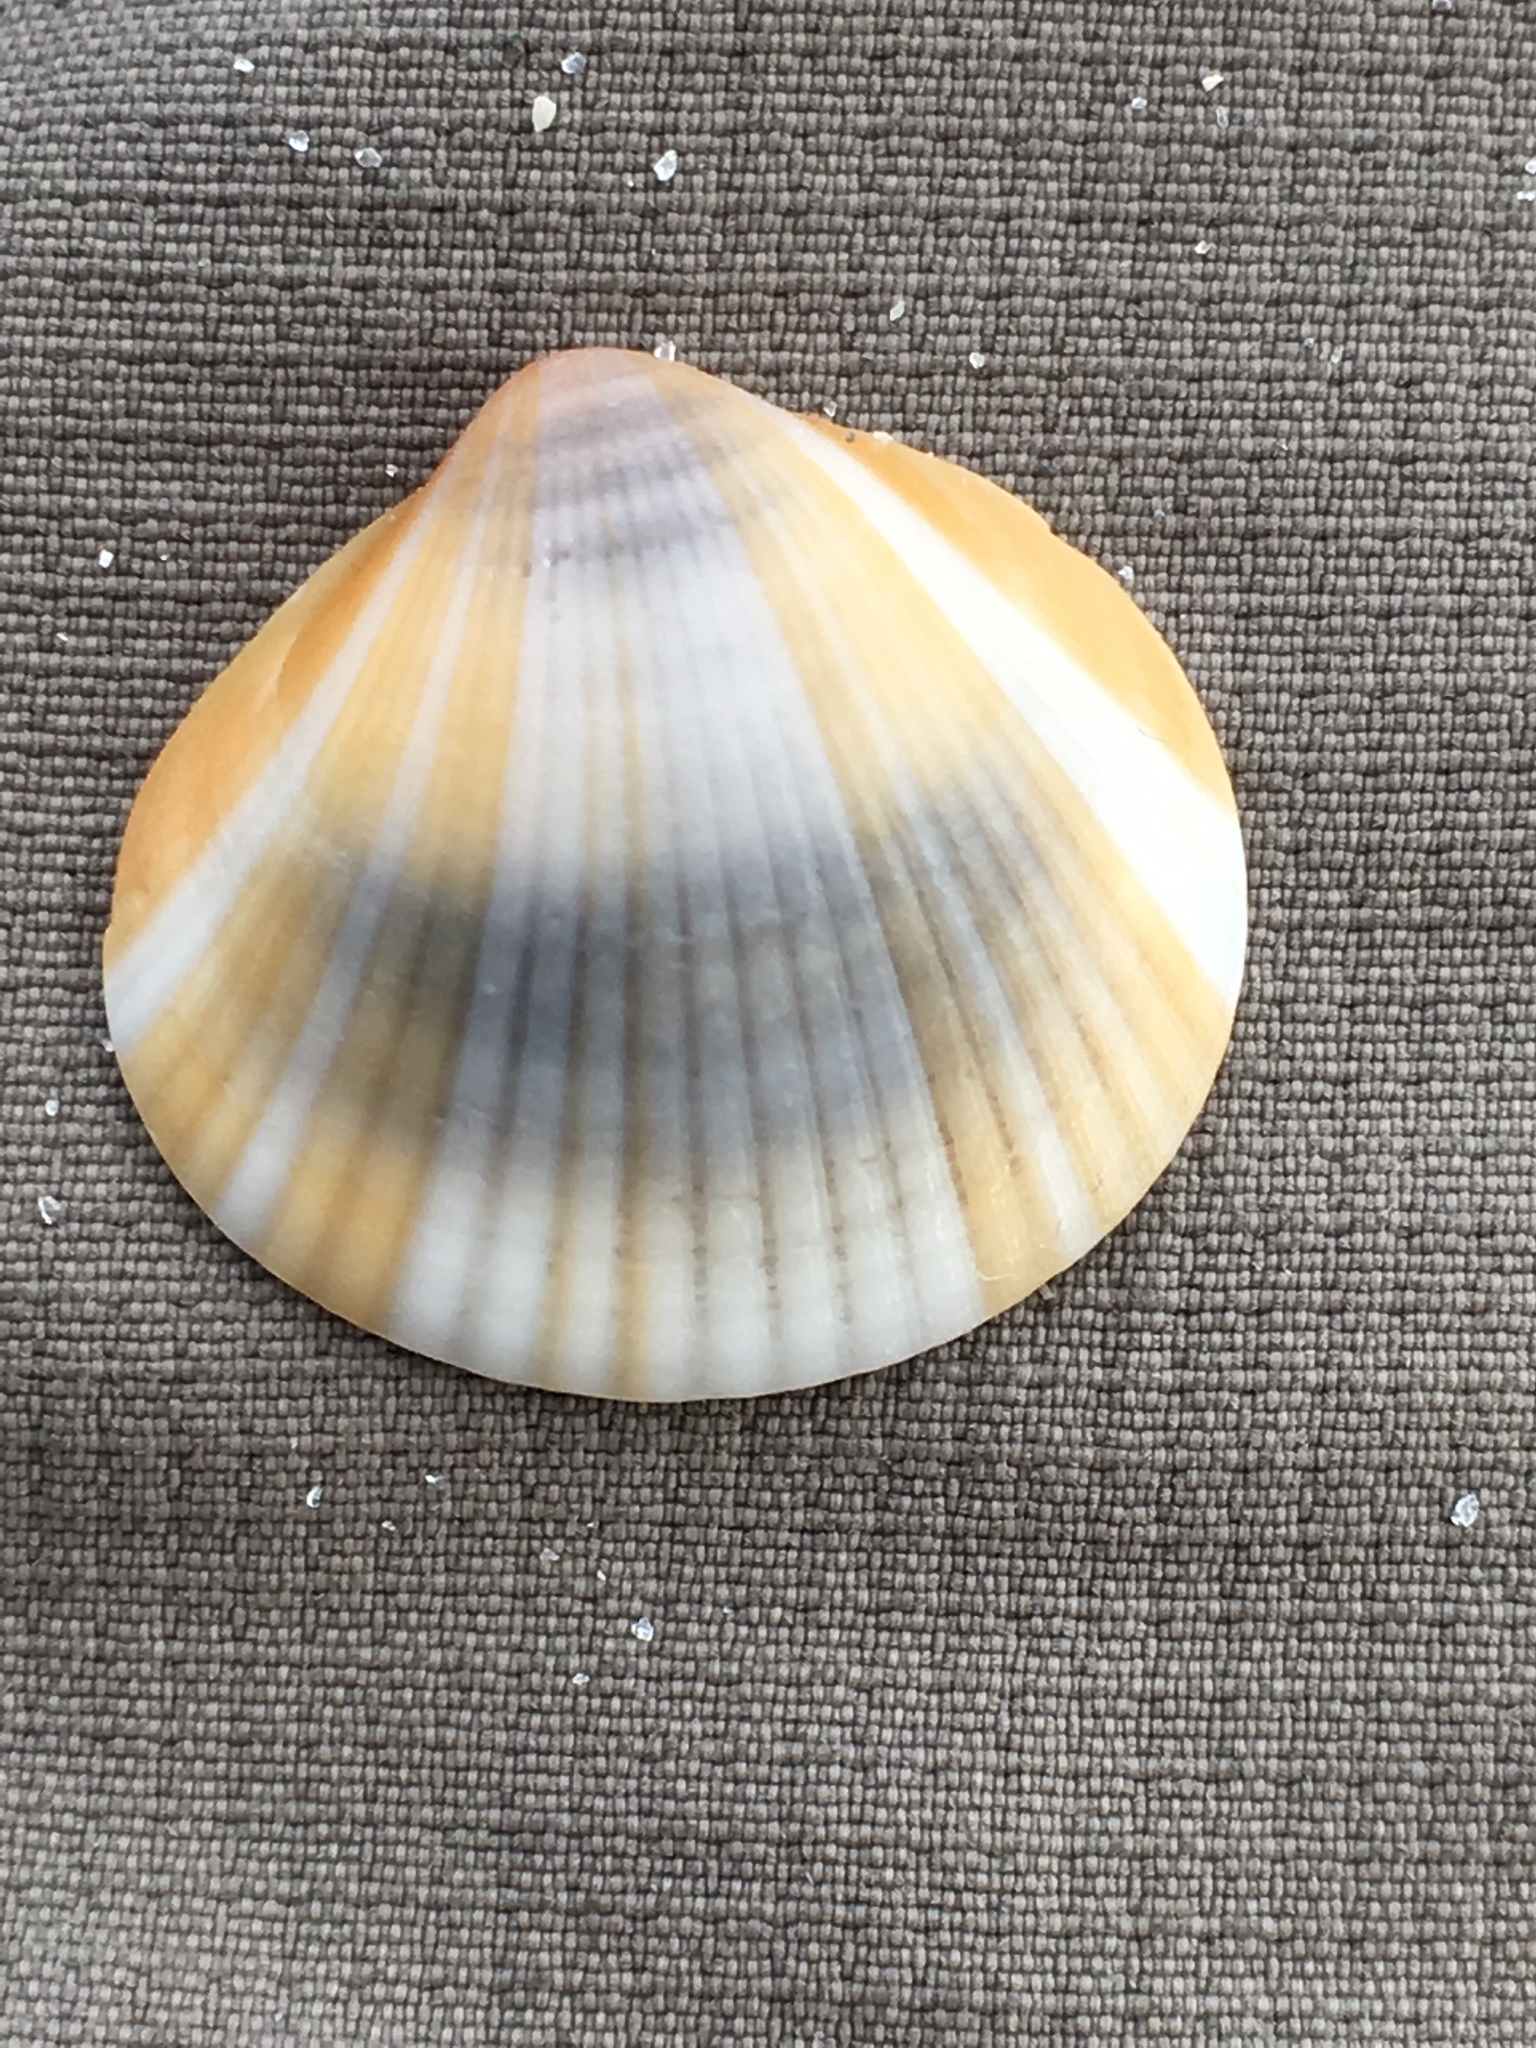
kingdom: Animalia
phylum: Mollusca
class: Bivalvia
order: Arcida
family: Glycymerididae
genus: Glycymeris
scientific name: Glycymeris spectralis
